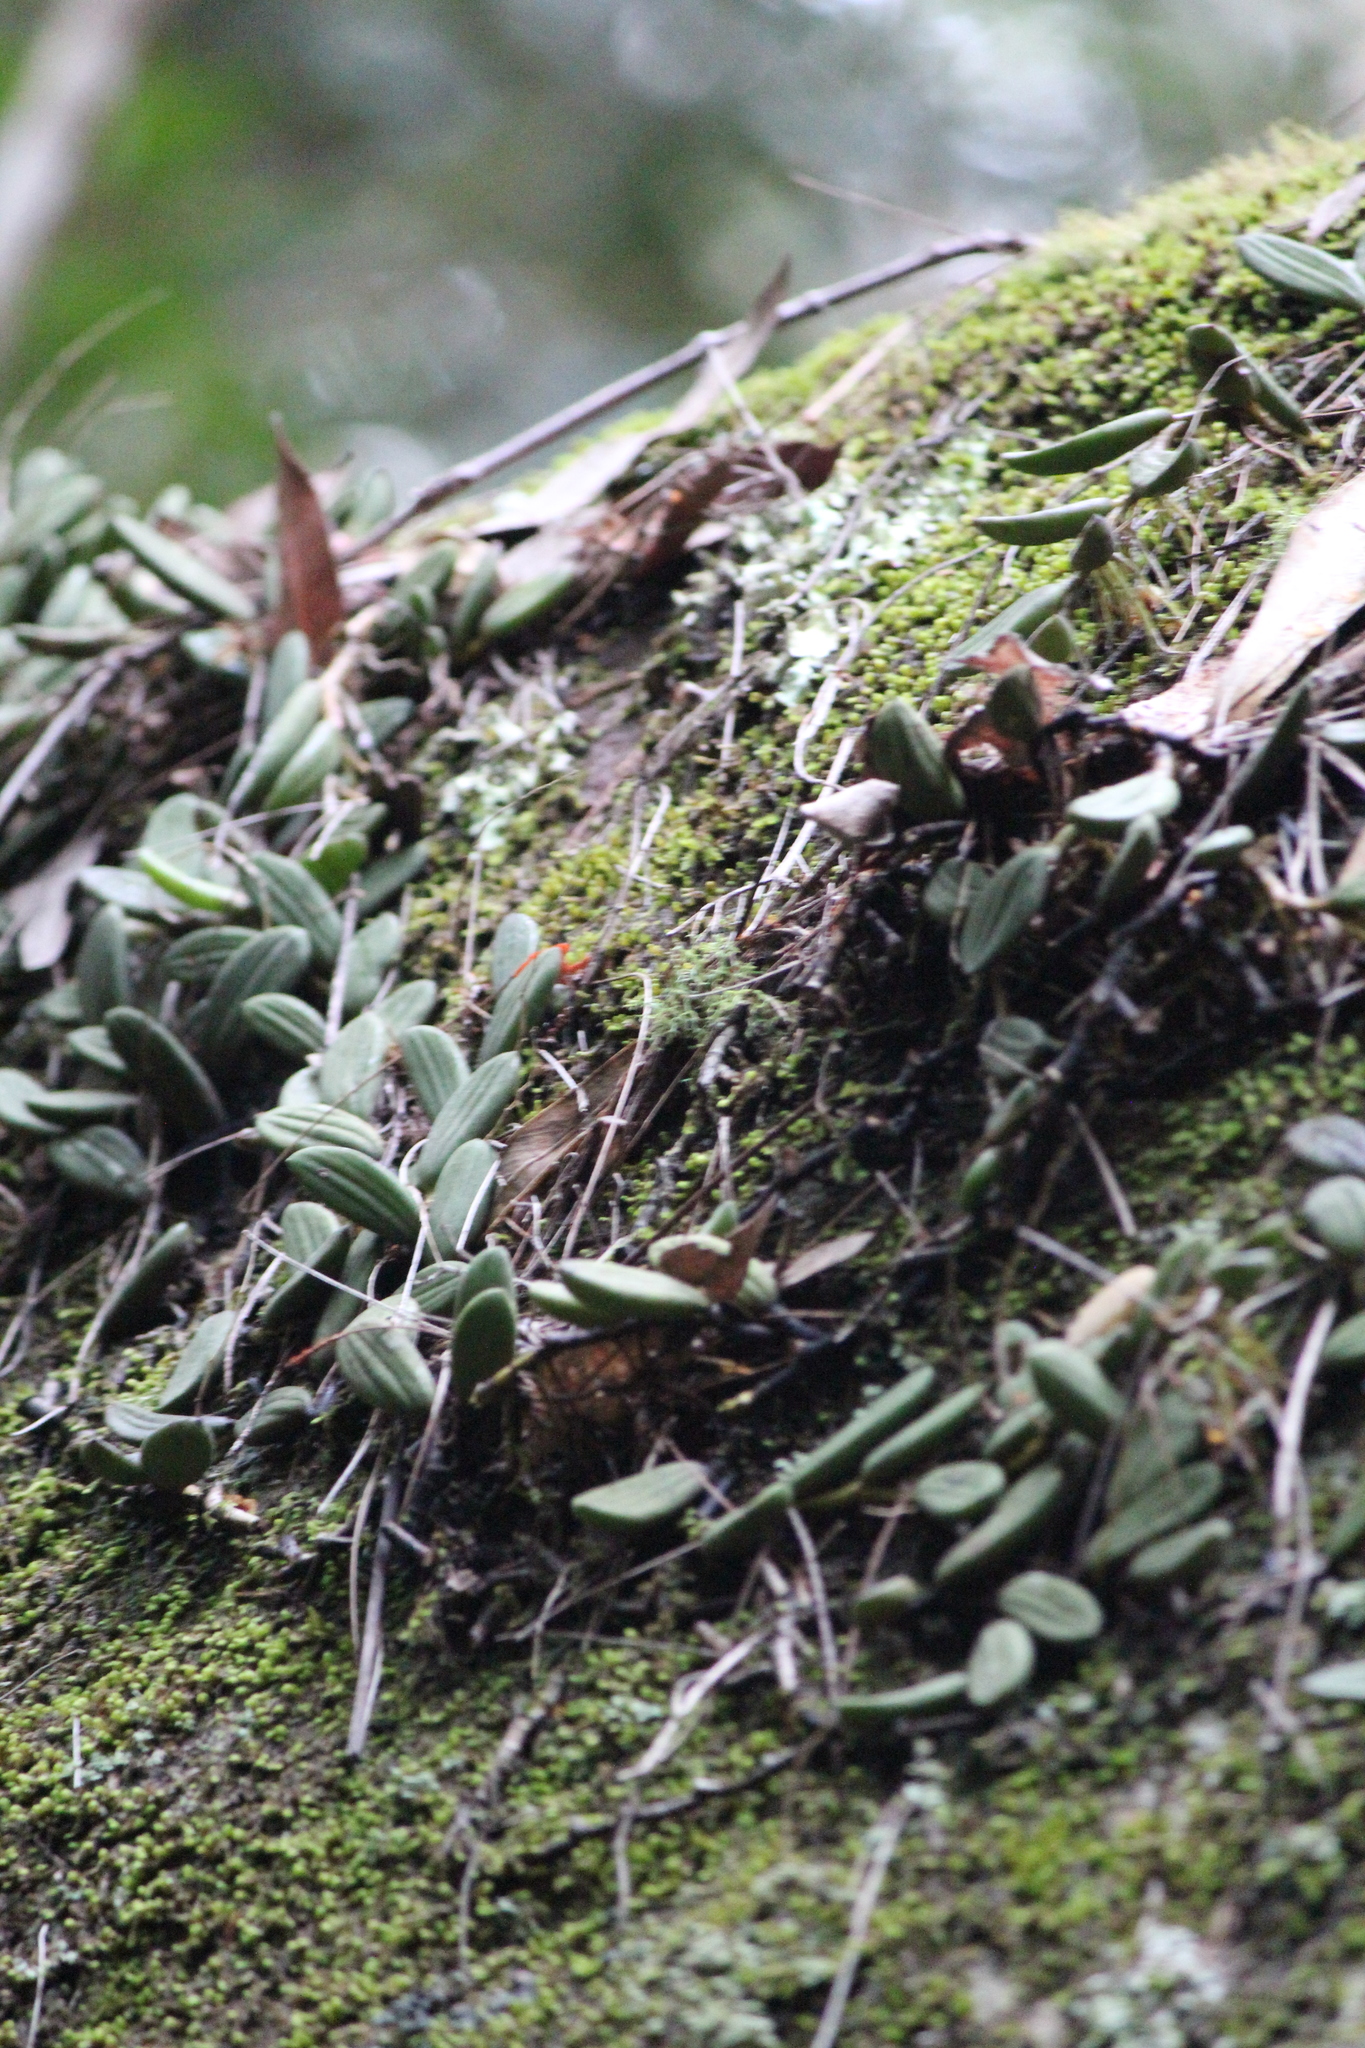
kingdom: Plantae
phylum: Tracheophyta
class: Liliopsida
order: Asparagales
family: Orchidaceae
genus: Dendrobium
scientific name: Dendrobium linguiforme
